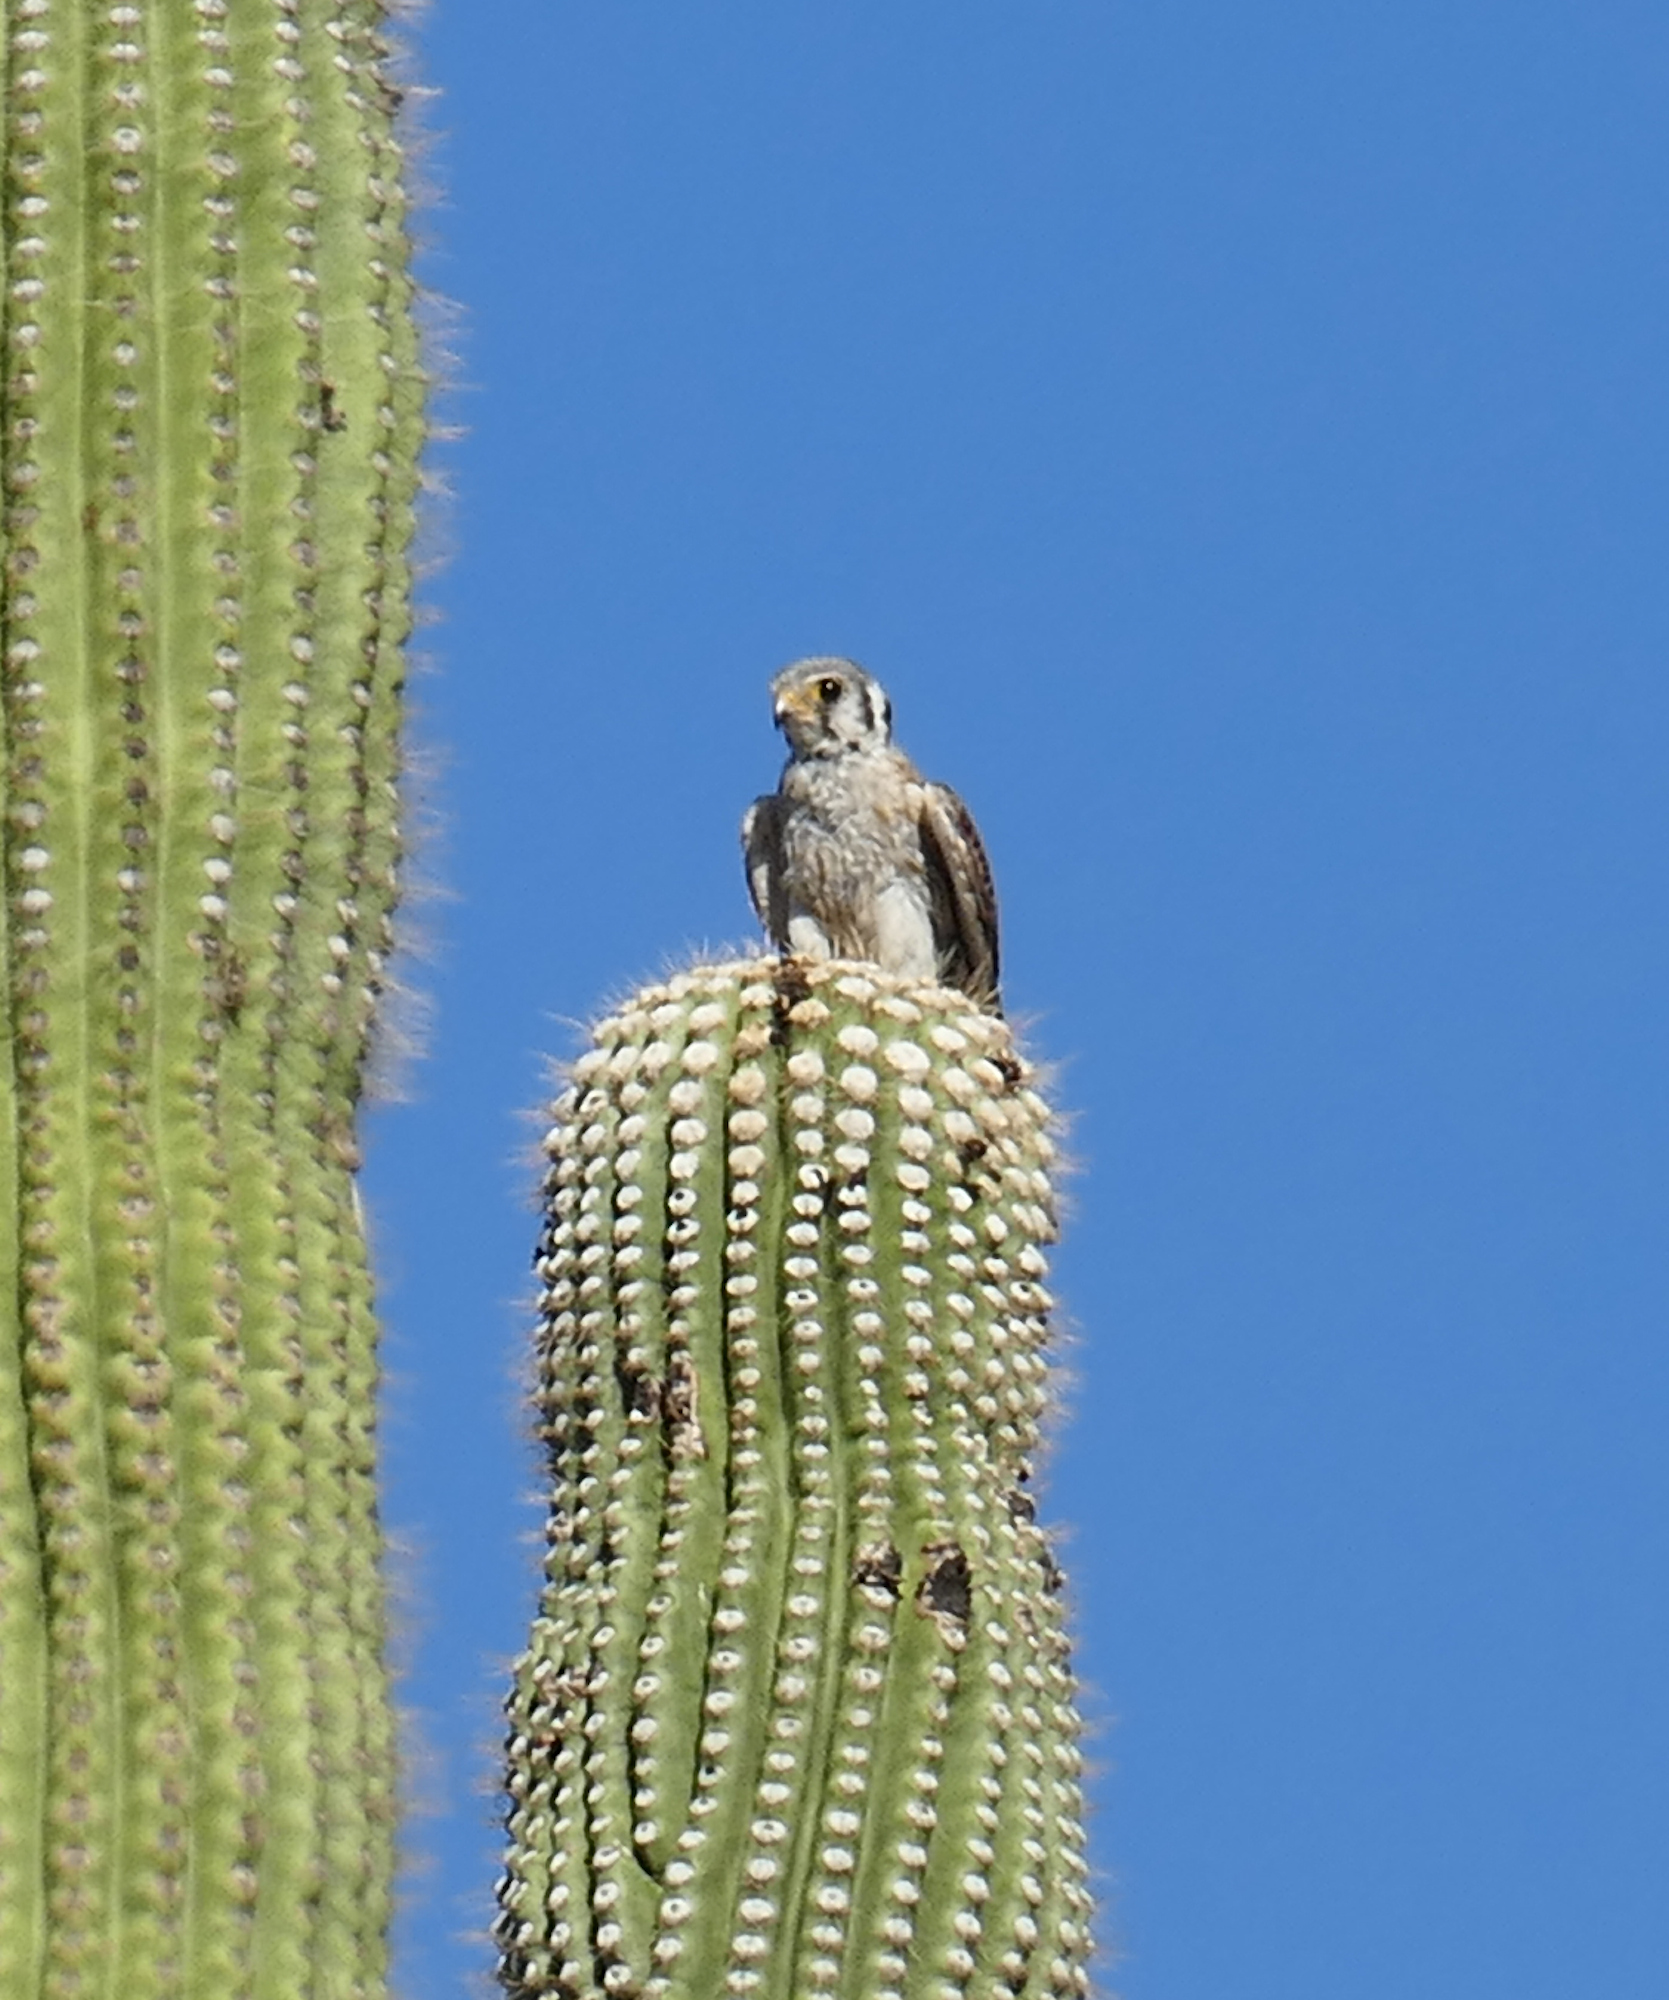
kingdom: Animalia
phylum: Chordata
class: Aves
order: Falconiformes
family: Falconidae
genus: Falco
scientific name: Falco sparverius
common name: American kestrel
